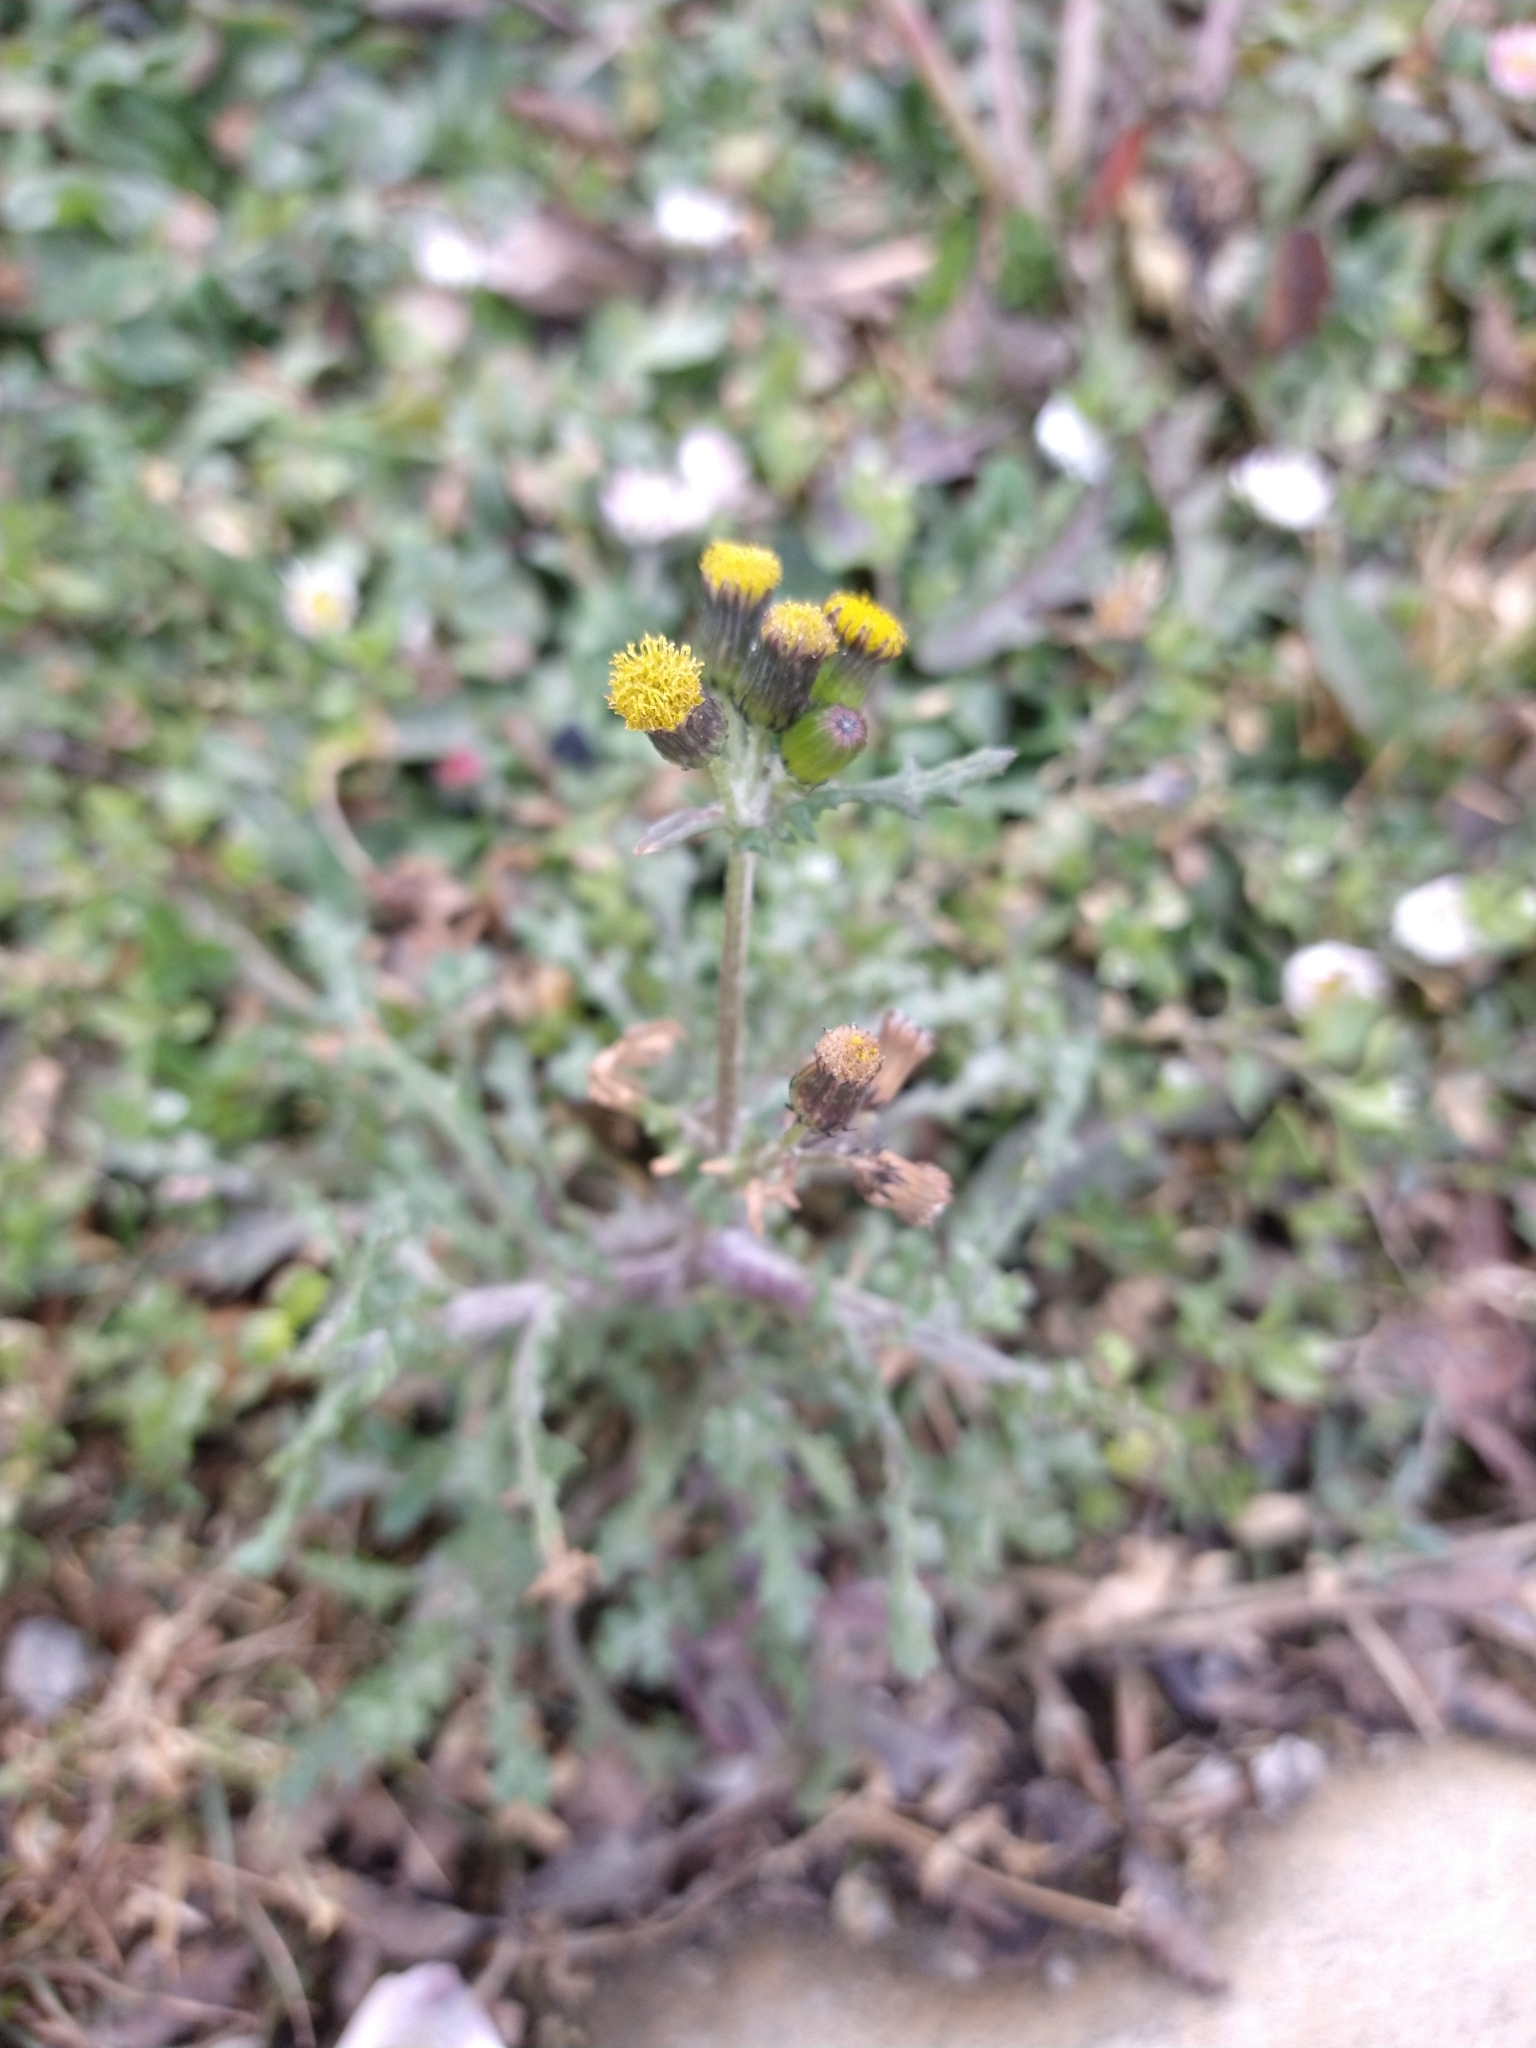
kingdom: Plantae
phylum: Tracheophyta
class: Magnoliopsida
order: Asterales
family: Asteraceae
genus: Senecio
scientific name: Senecio vulgaris
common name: Old-man-in-the-spring
